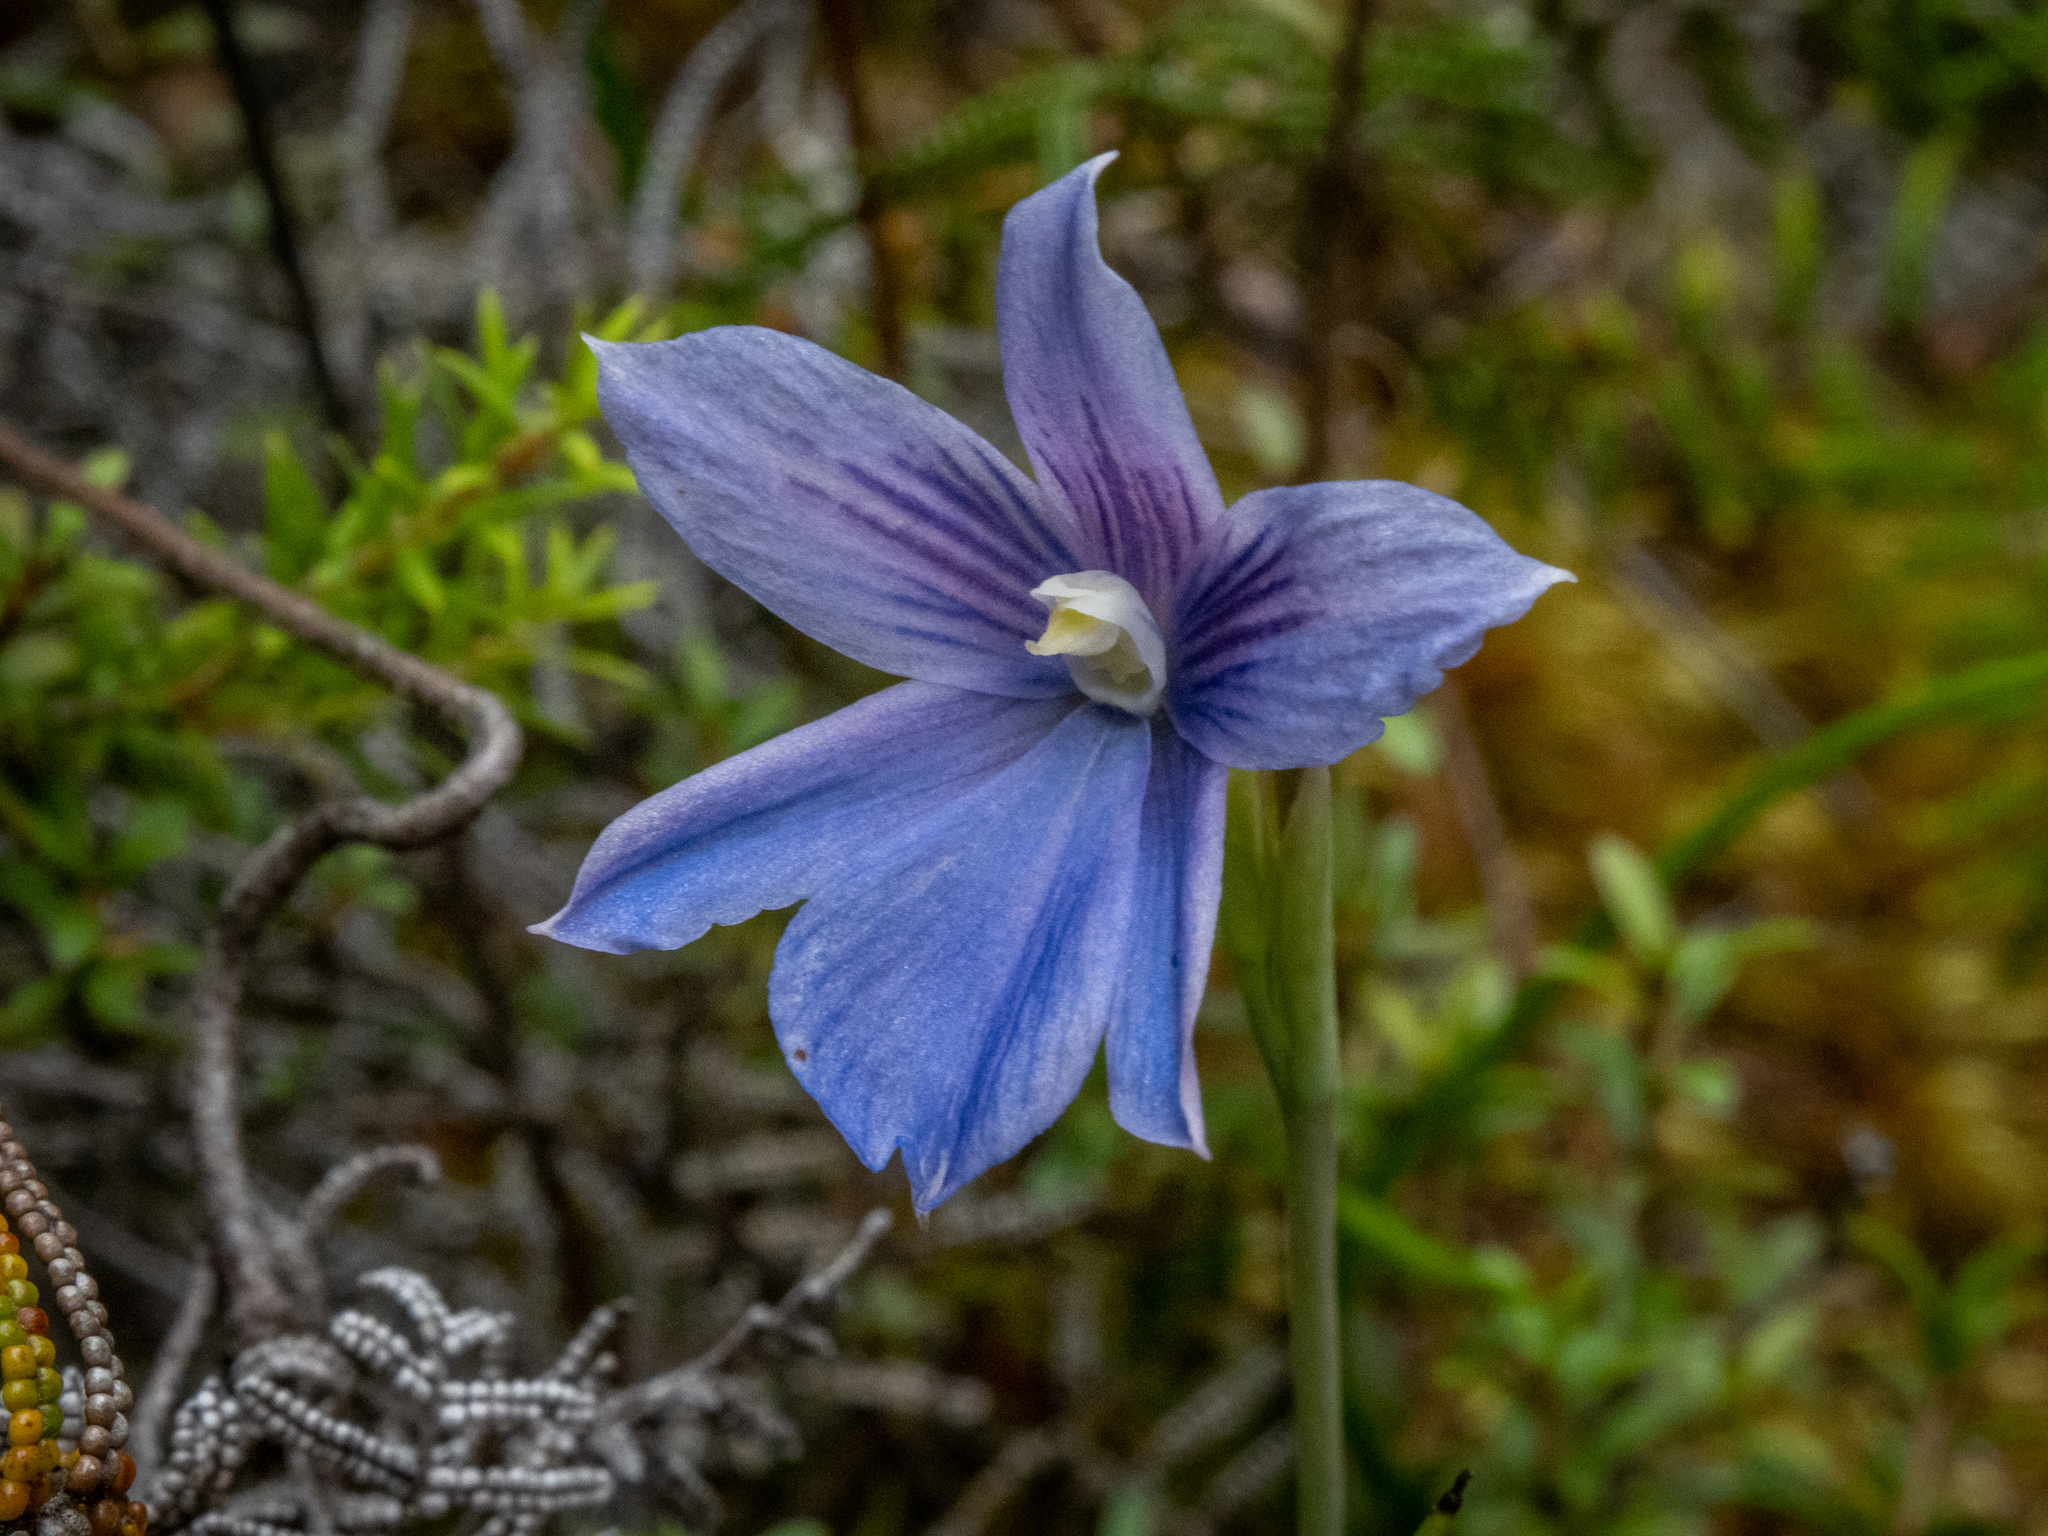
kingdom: Plantae
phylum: Tracheophyta
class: Liliopsida
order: Asparagales
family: Orchidaceae
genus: Thelymitra
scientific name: Thelymitra cyanea
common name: Blue sun-orchid
